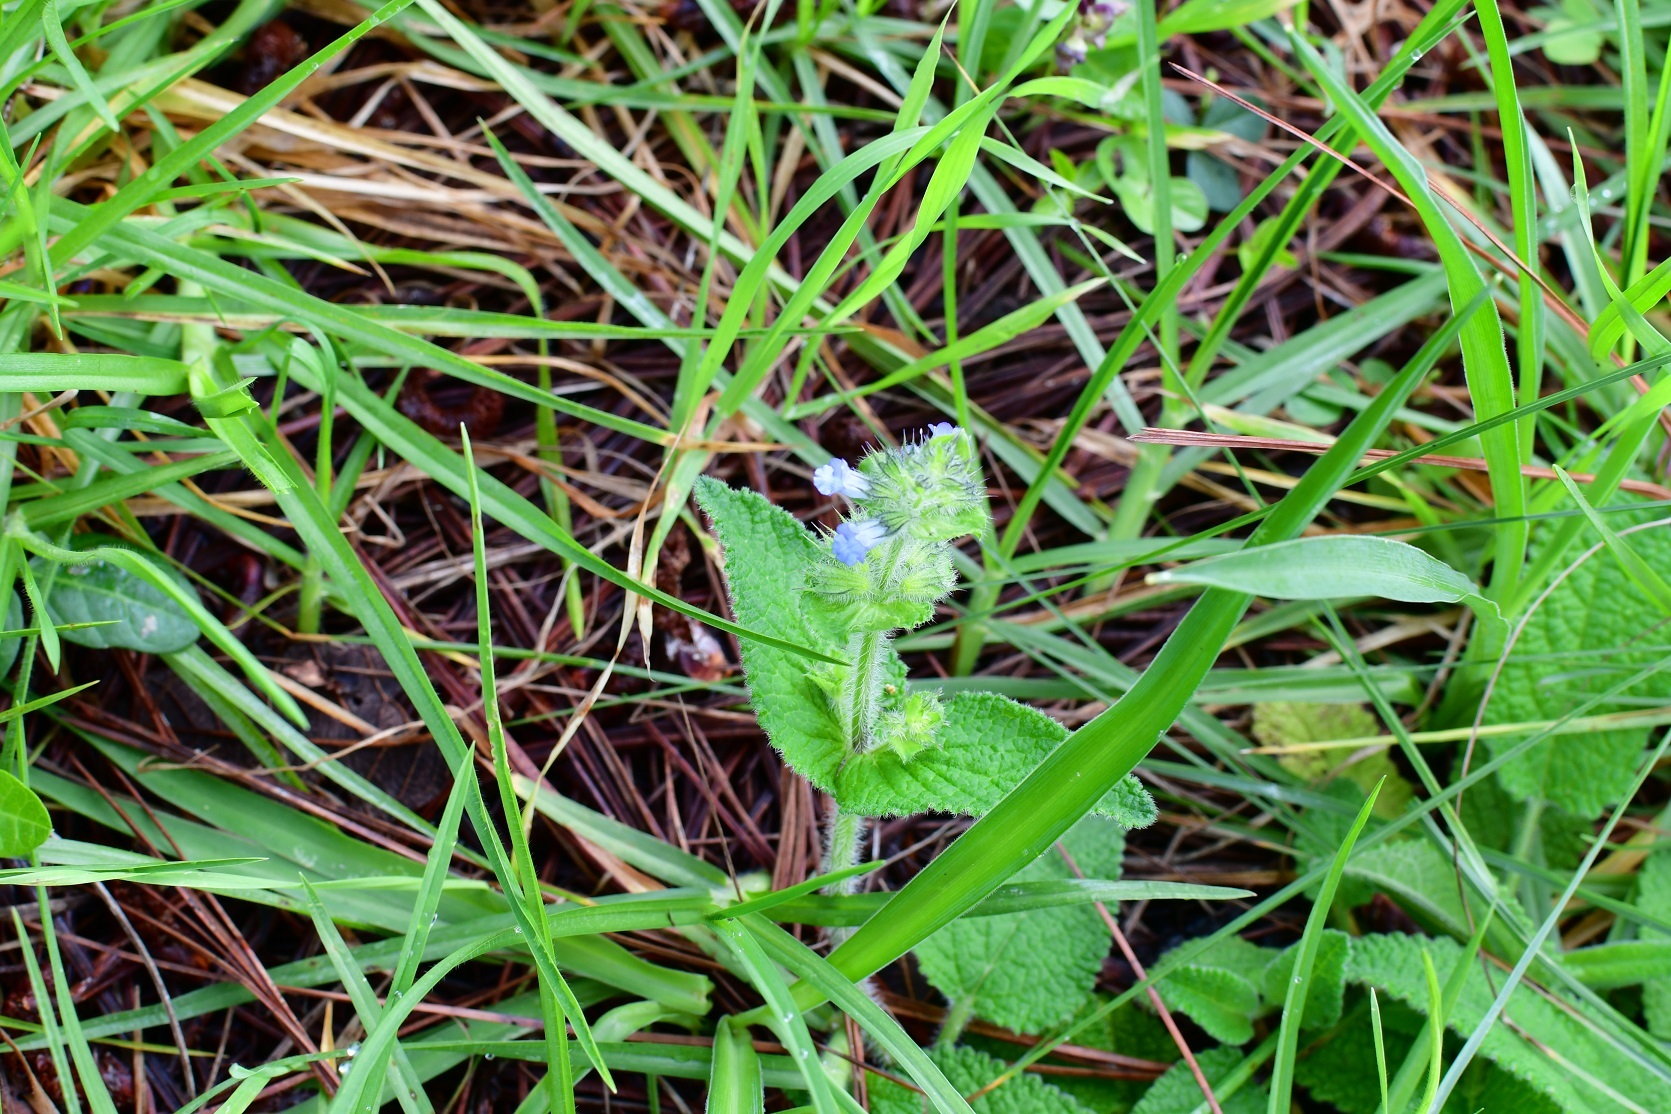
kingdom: Plantae
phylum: Tracheophyta
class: Magnoliopsida
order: Lamiales
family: Lamiaceae
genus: Lepechinia
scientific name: Lepechinia schiedeana
